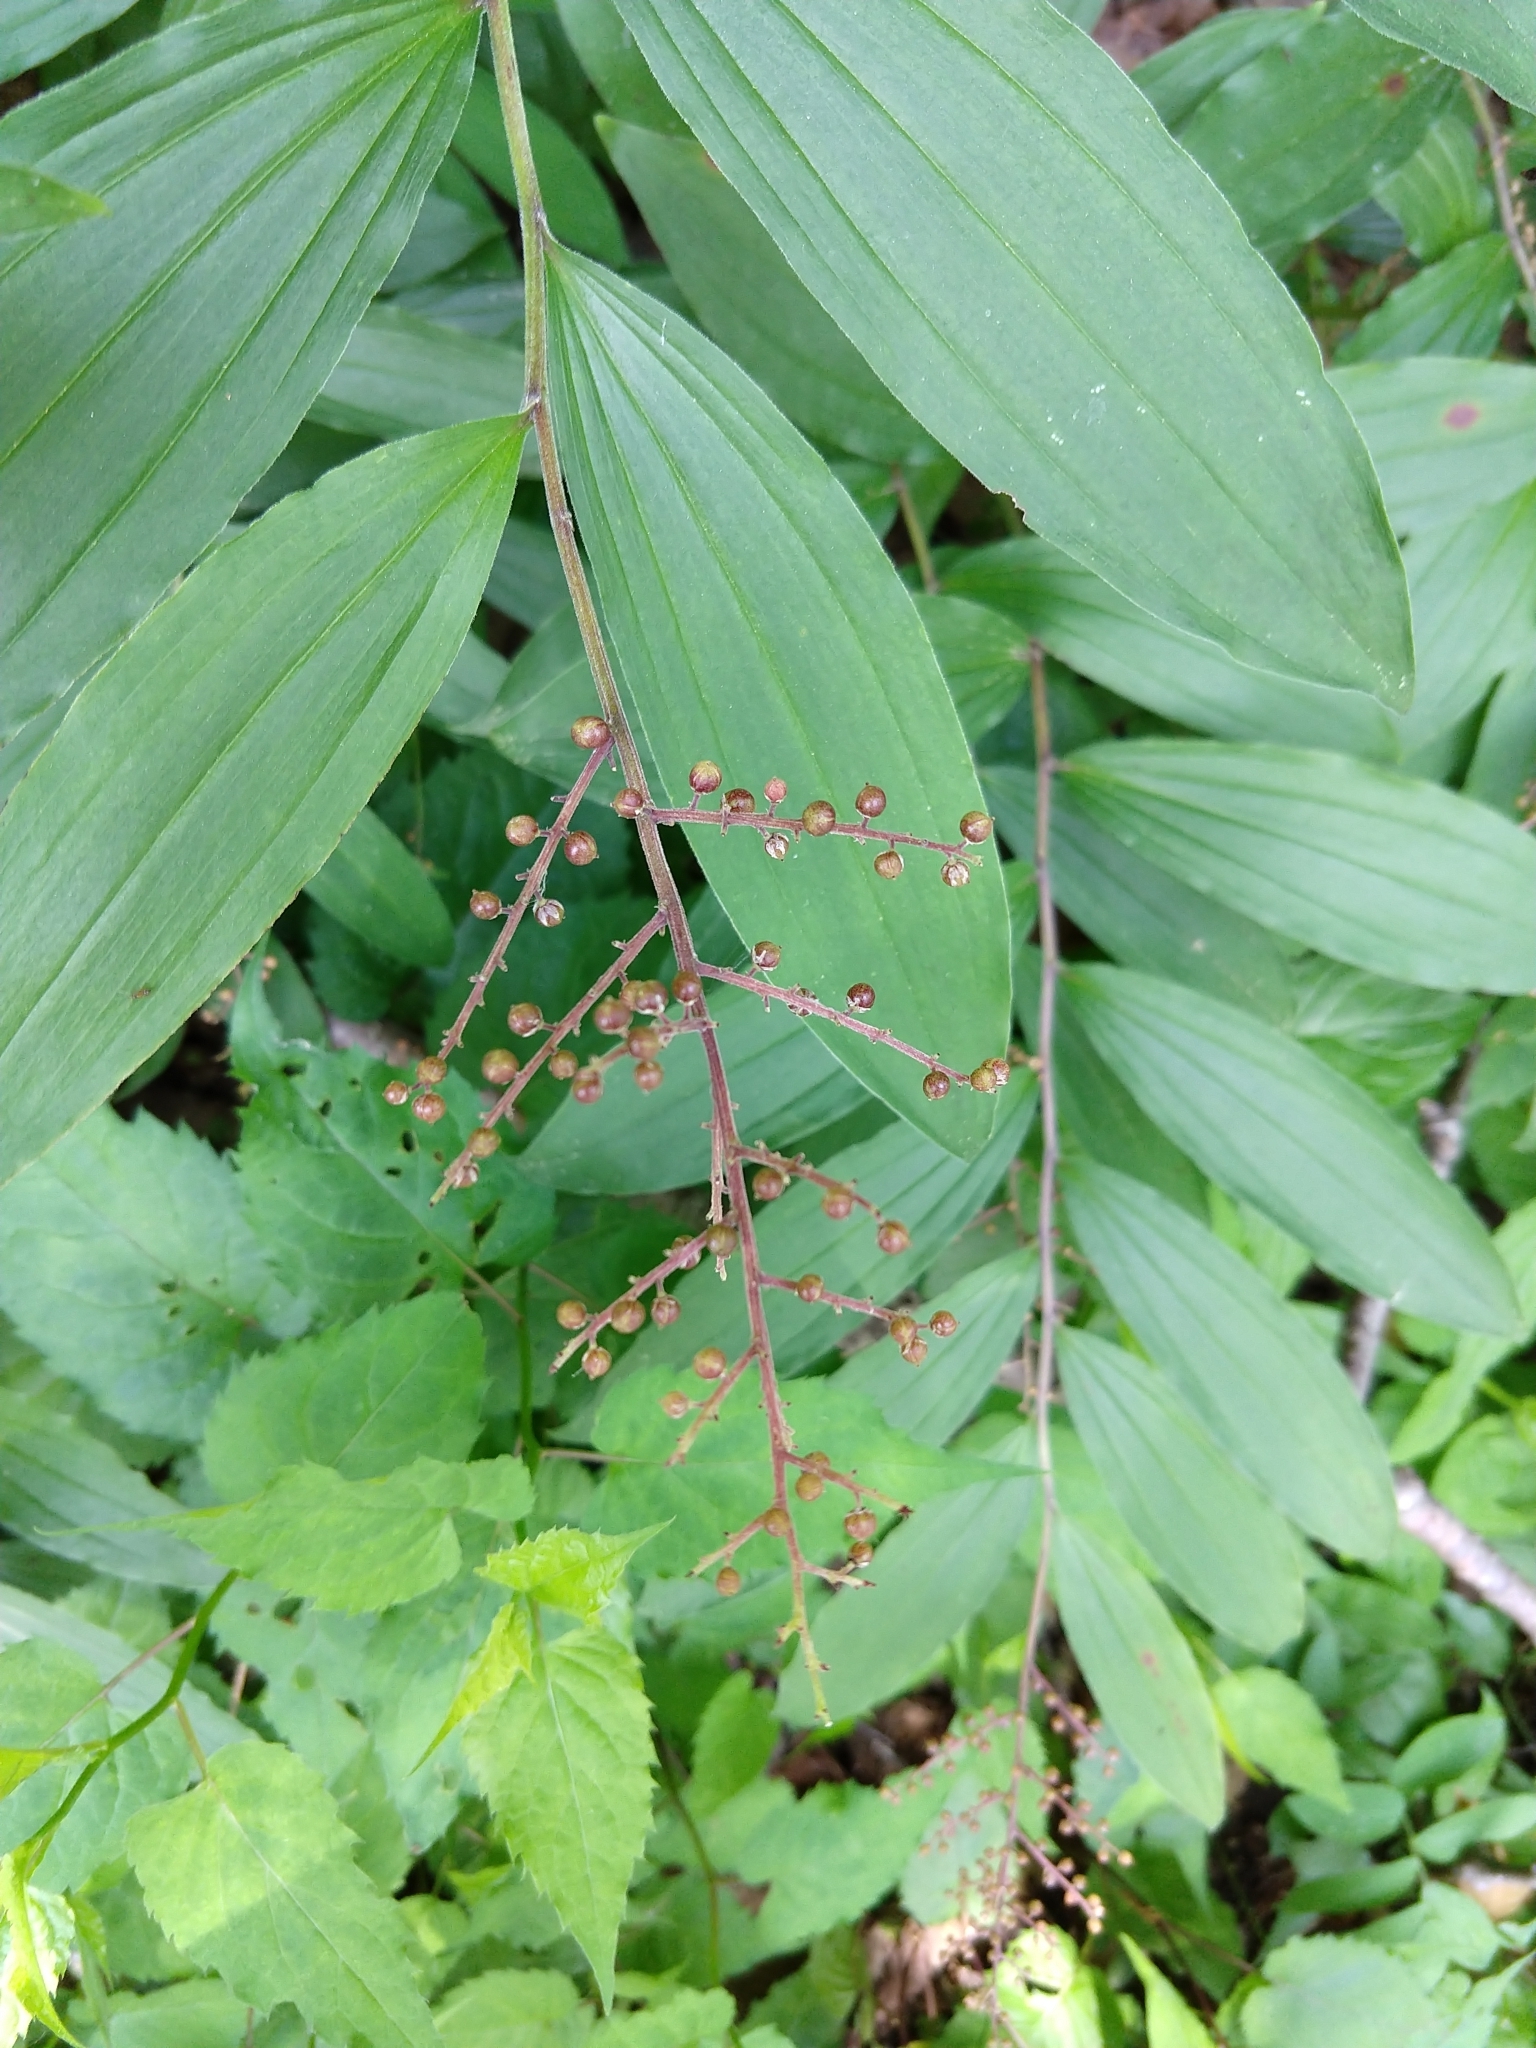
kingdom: Plantae
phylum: Tracheophyta
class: Liliopsida
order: Asparagales
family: Asparagaceae
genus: Maianthemum
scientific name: Maianthemum racemosum
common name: False spikenard
